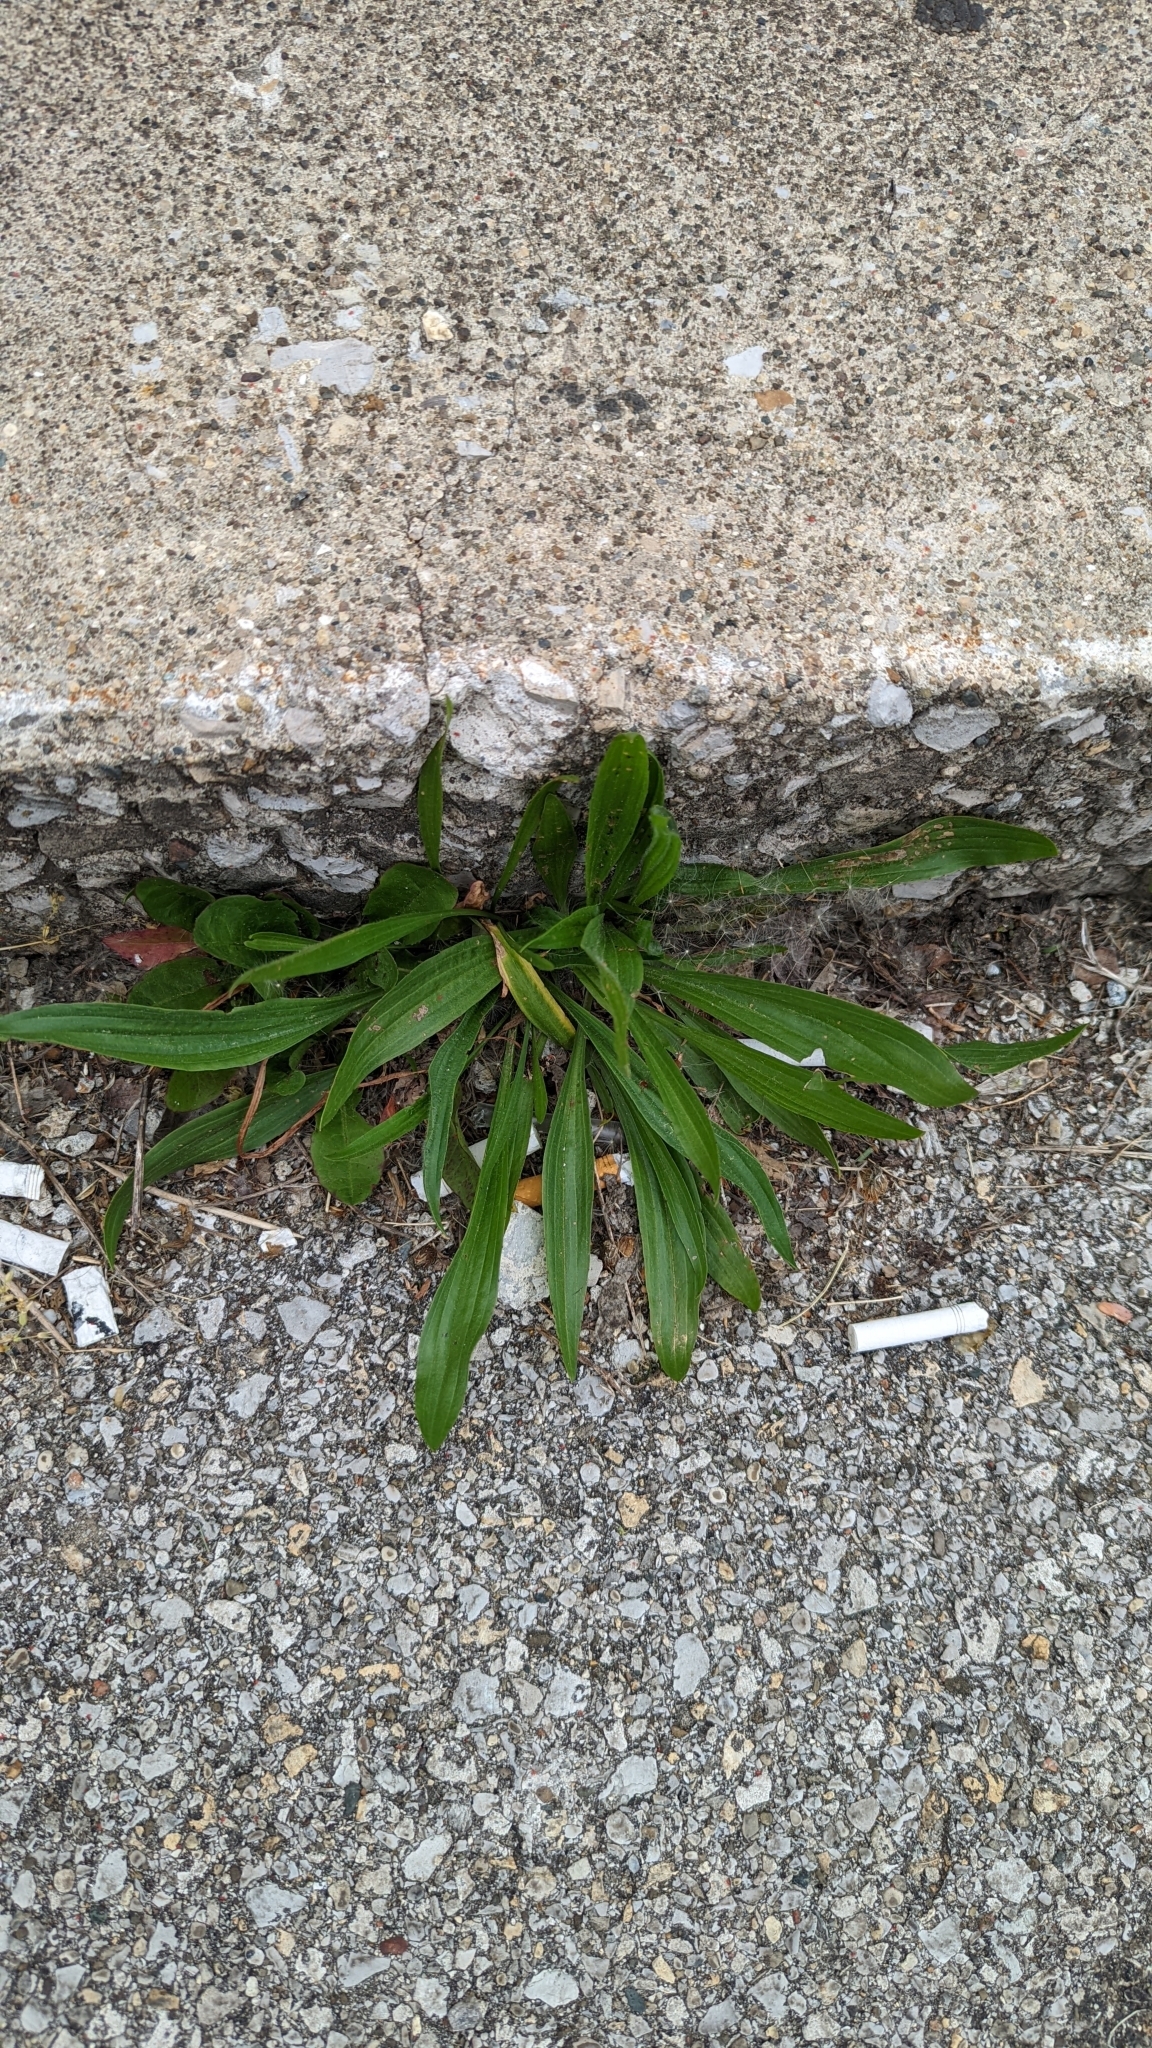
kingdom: Plantae
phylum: Tracheophyta
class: Magnoliopsida
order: Lamiales
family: Plantaginaceae
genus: Plantago
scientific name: Plantago lanceolata
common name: Ribwort plantain
